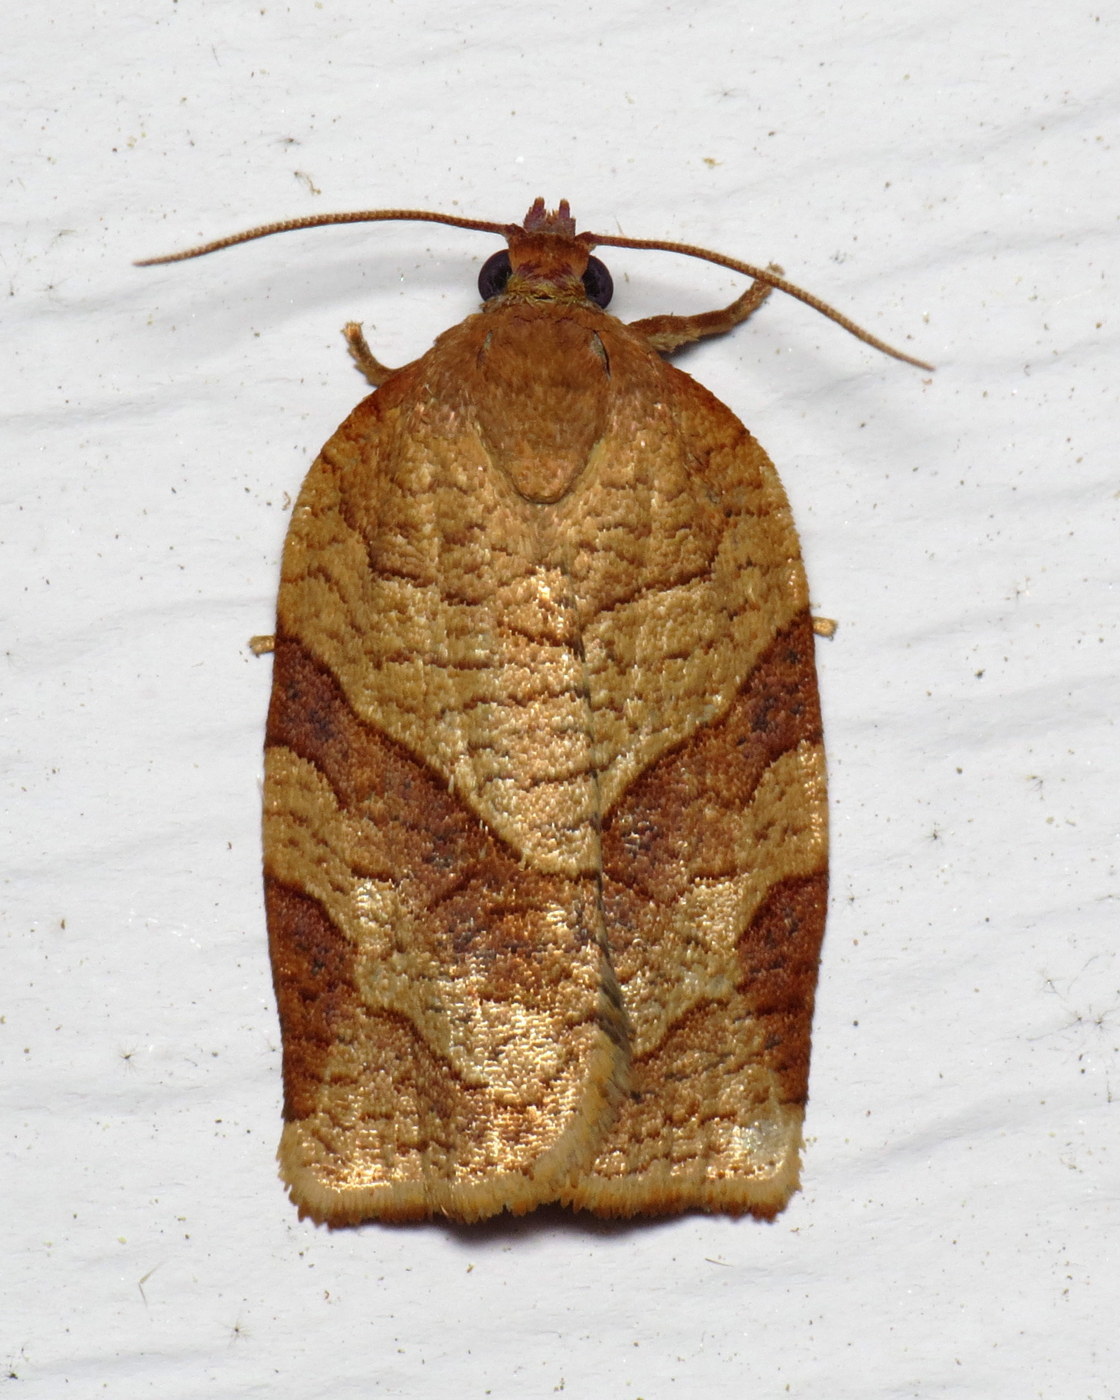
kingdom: Animalia
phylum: Arthropoda
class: Insecta
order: Lepidoptera
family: Tortricidae
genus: Choristoneura
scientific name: Choristoneura parallela
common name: Parallel-banded leafroller moth
